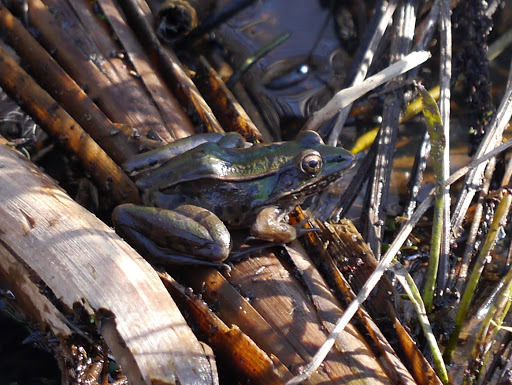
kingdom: Animalia
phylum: Chordata
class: Amphibia
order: Anura
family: Ranidae
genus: Lithobates
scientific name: Lithobates sphenocephalus
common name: Southern leopard frog
